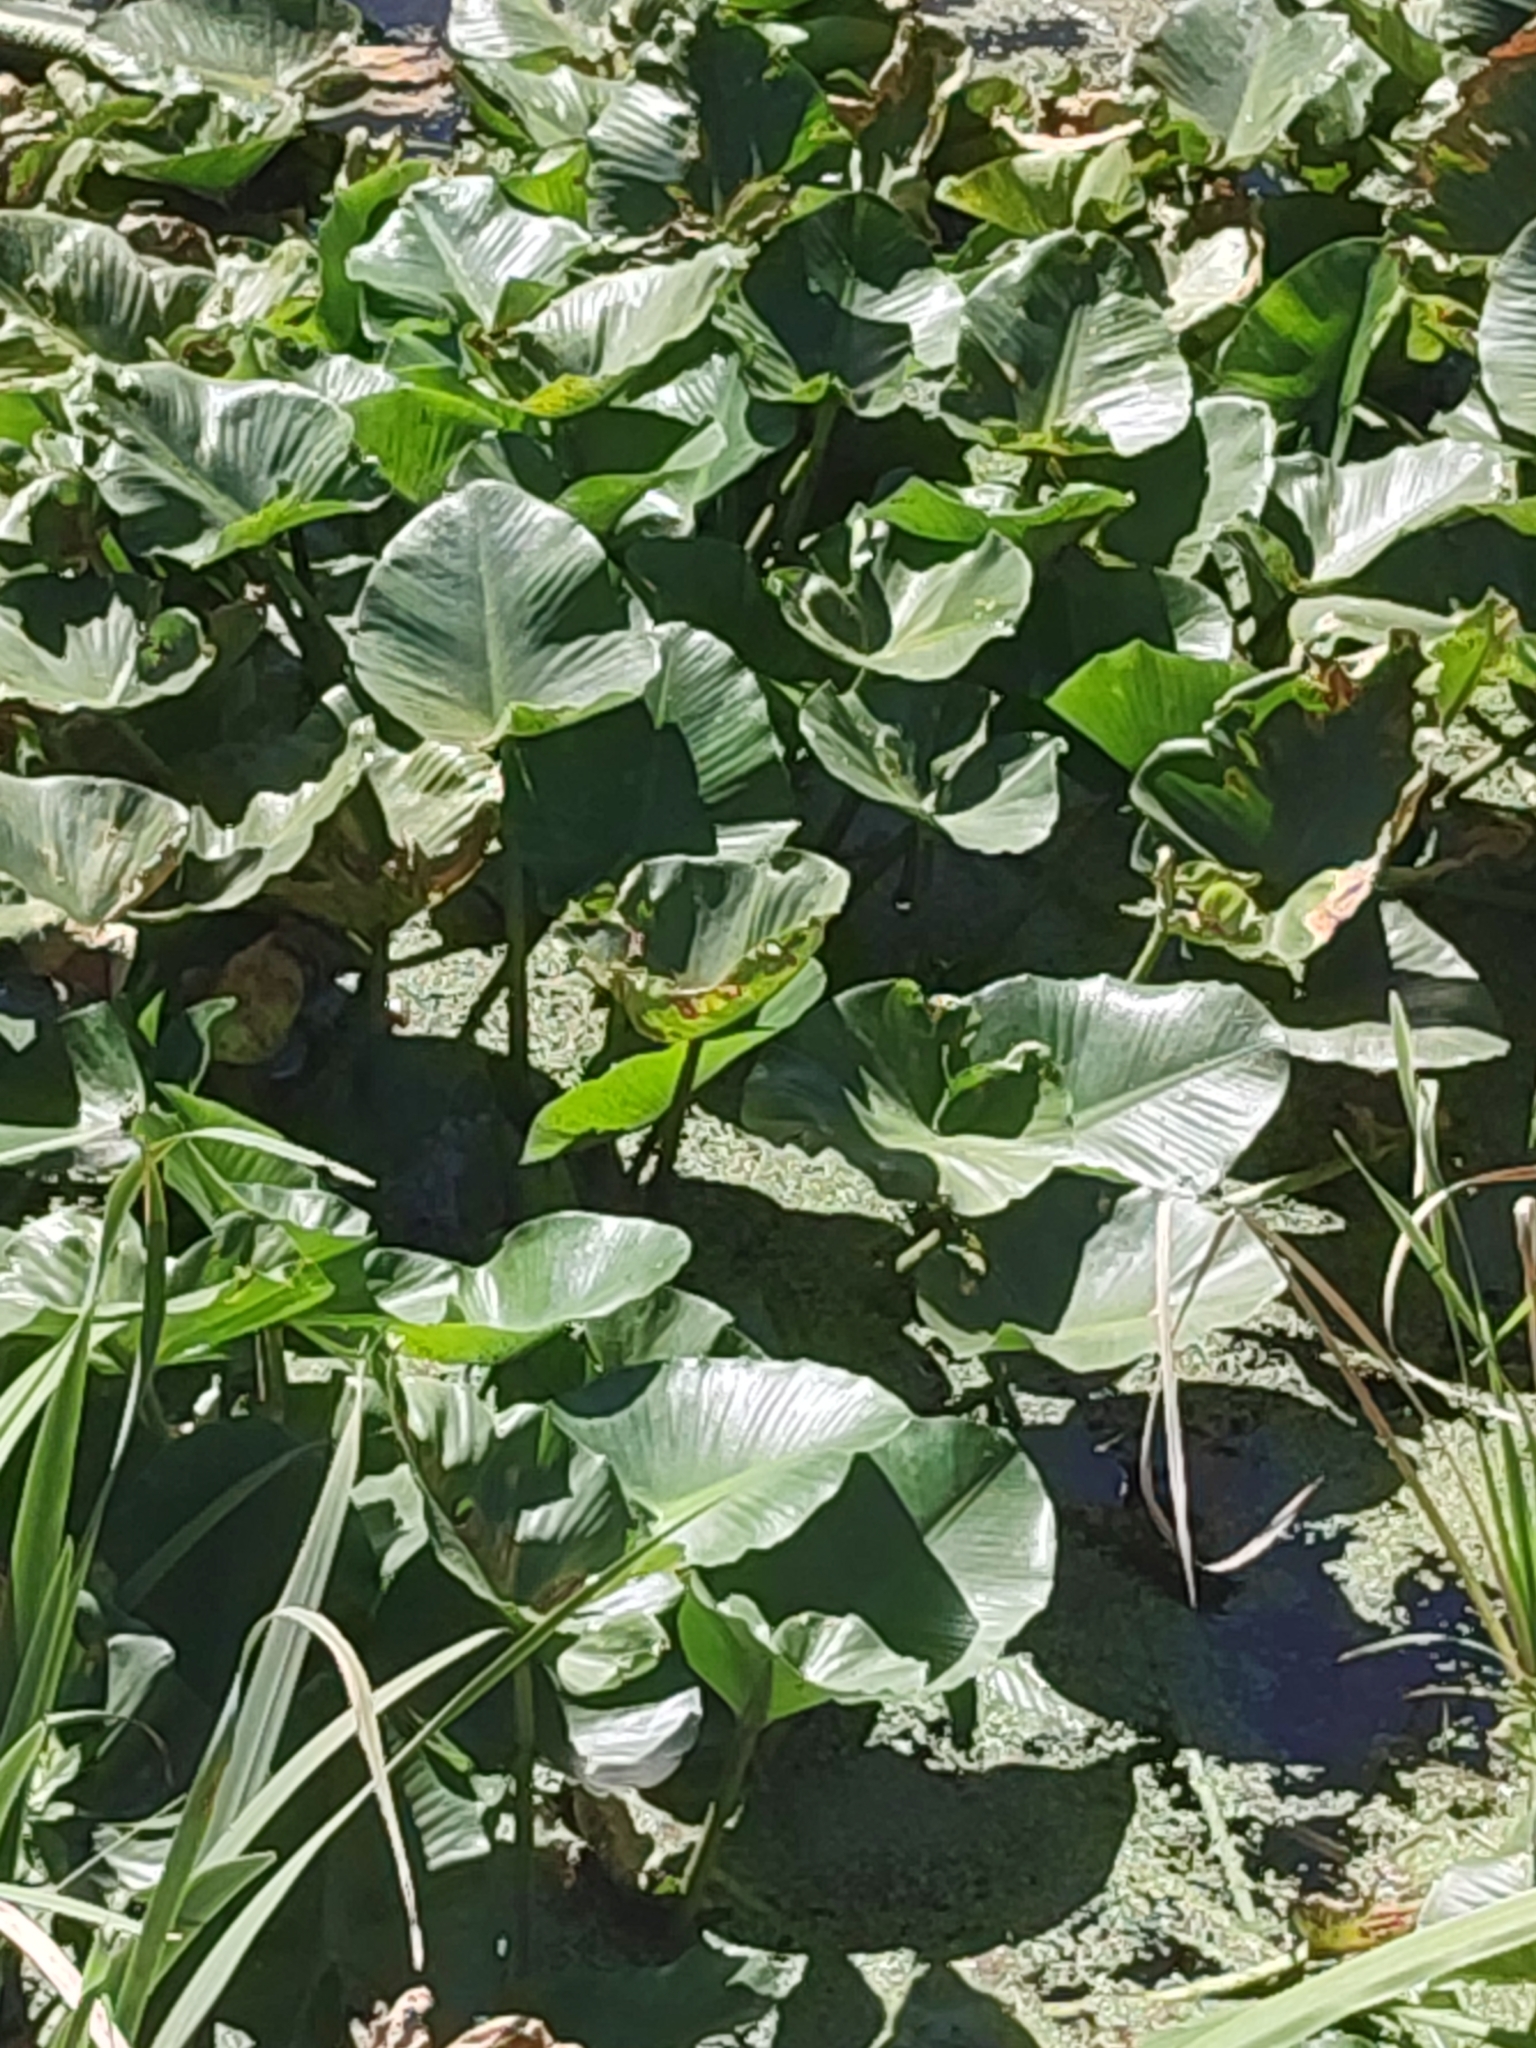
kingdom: Plantae
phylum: Tracheophyta
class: Magnoliopsida
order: Nymphaeales
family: Nymphaeaceae
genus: Nuphar
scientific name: Nuphar polysepala
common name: Rocky mountain cow-lily
